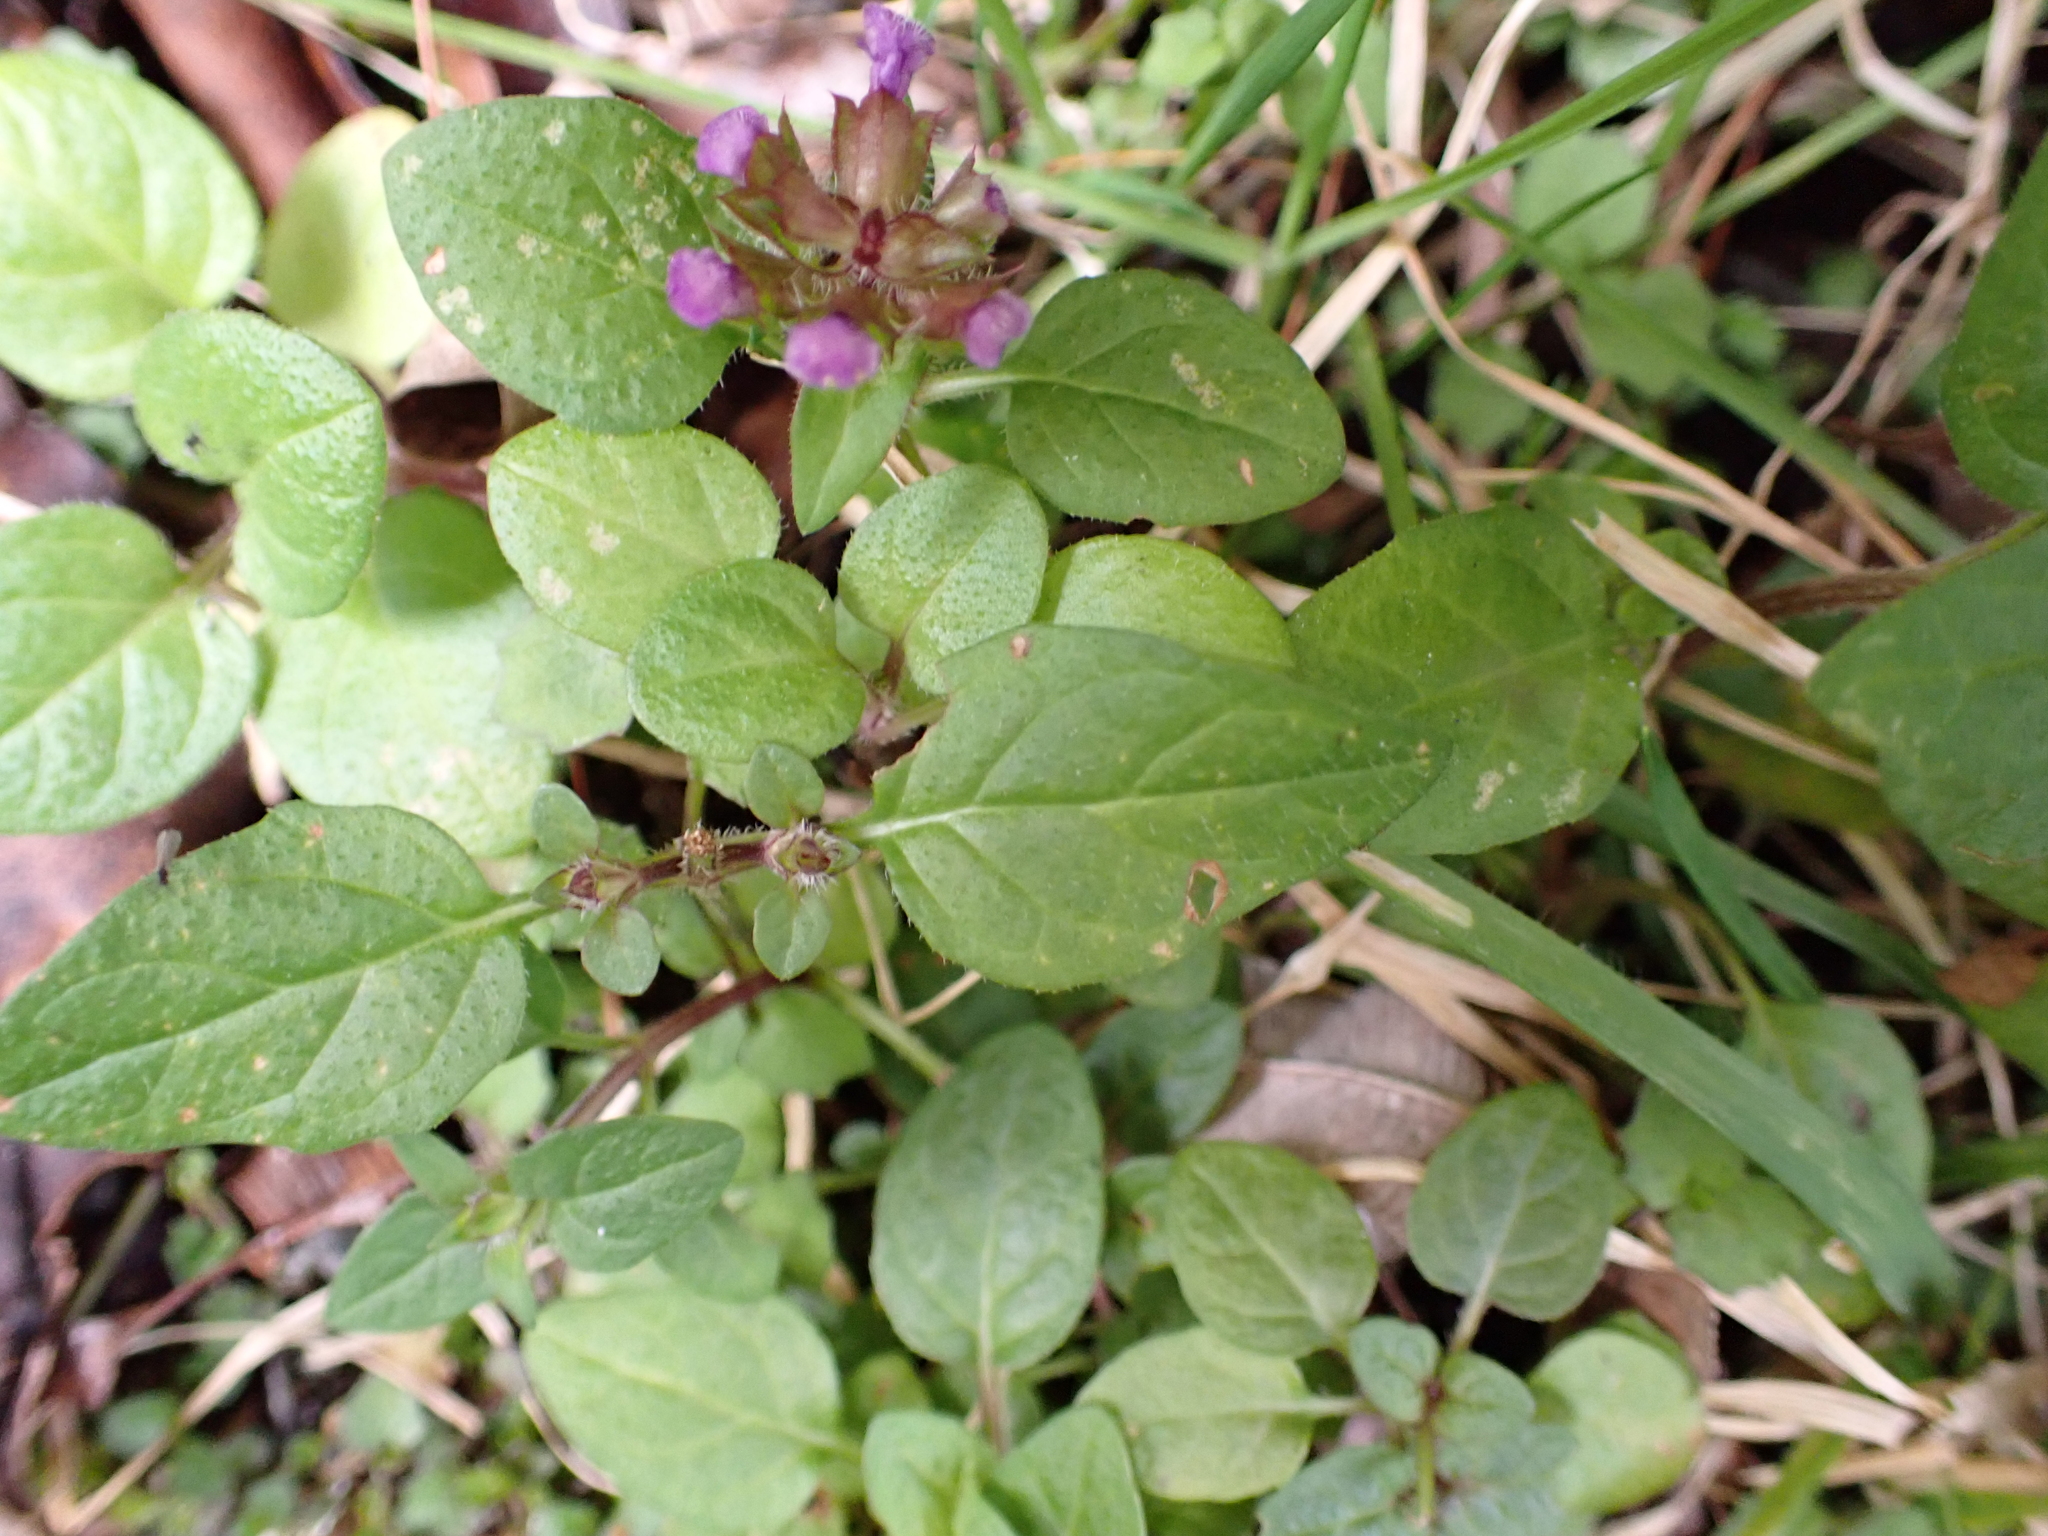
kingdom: Plantae
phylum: Tracheophyta
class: Magnoliopsida
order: Lamiales
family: Lamiaceae
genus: Prunella
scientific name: Prunella vulgaris
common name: Heal-all
